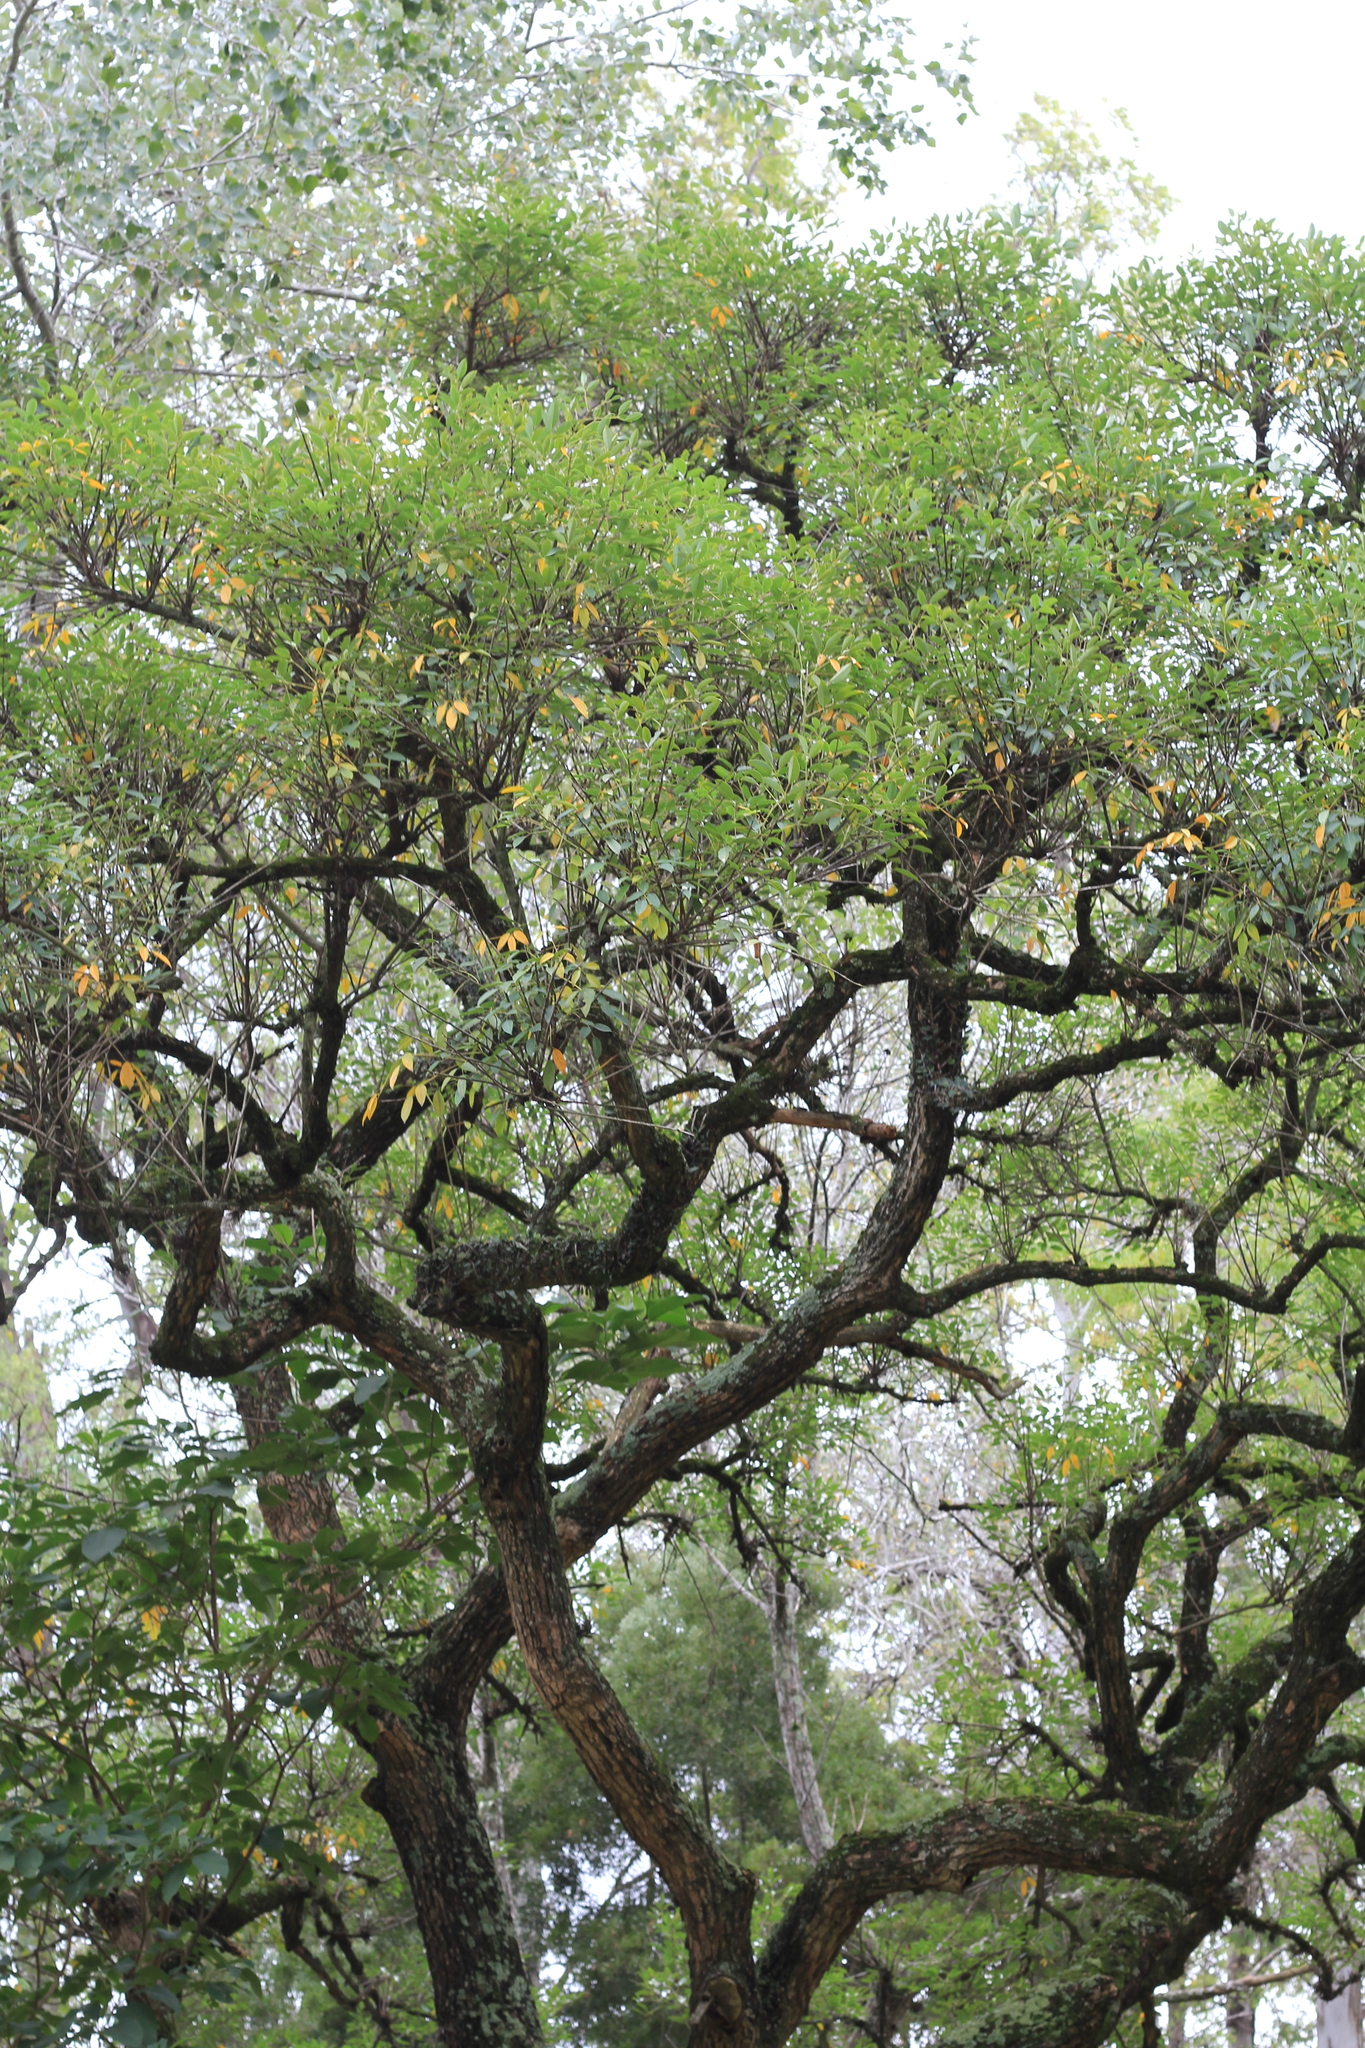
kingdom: Plantae
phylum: Tracheophyta
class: Magnoliopsida
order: Fabales
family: Fabaceae
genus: Erythrina
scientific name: Erythrina crista-galli
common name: Cockspur coral tree
